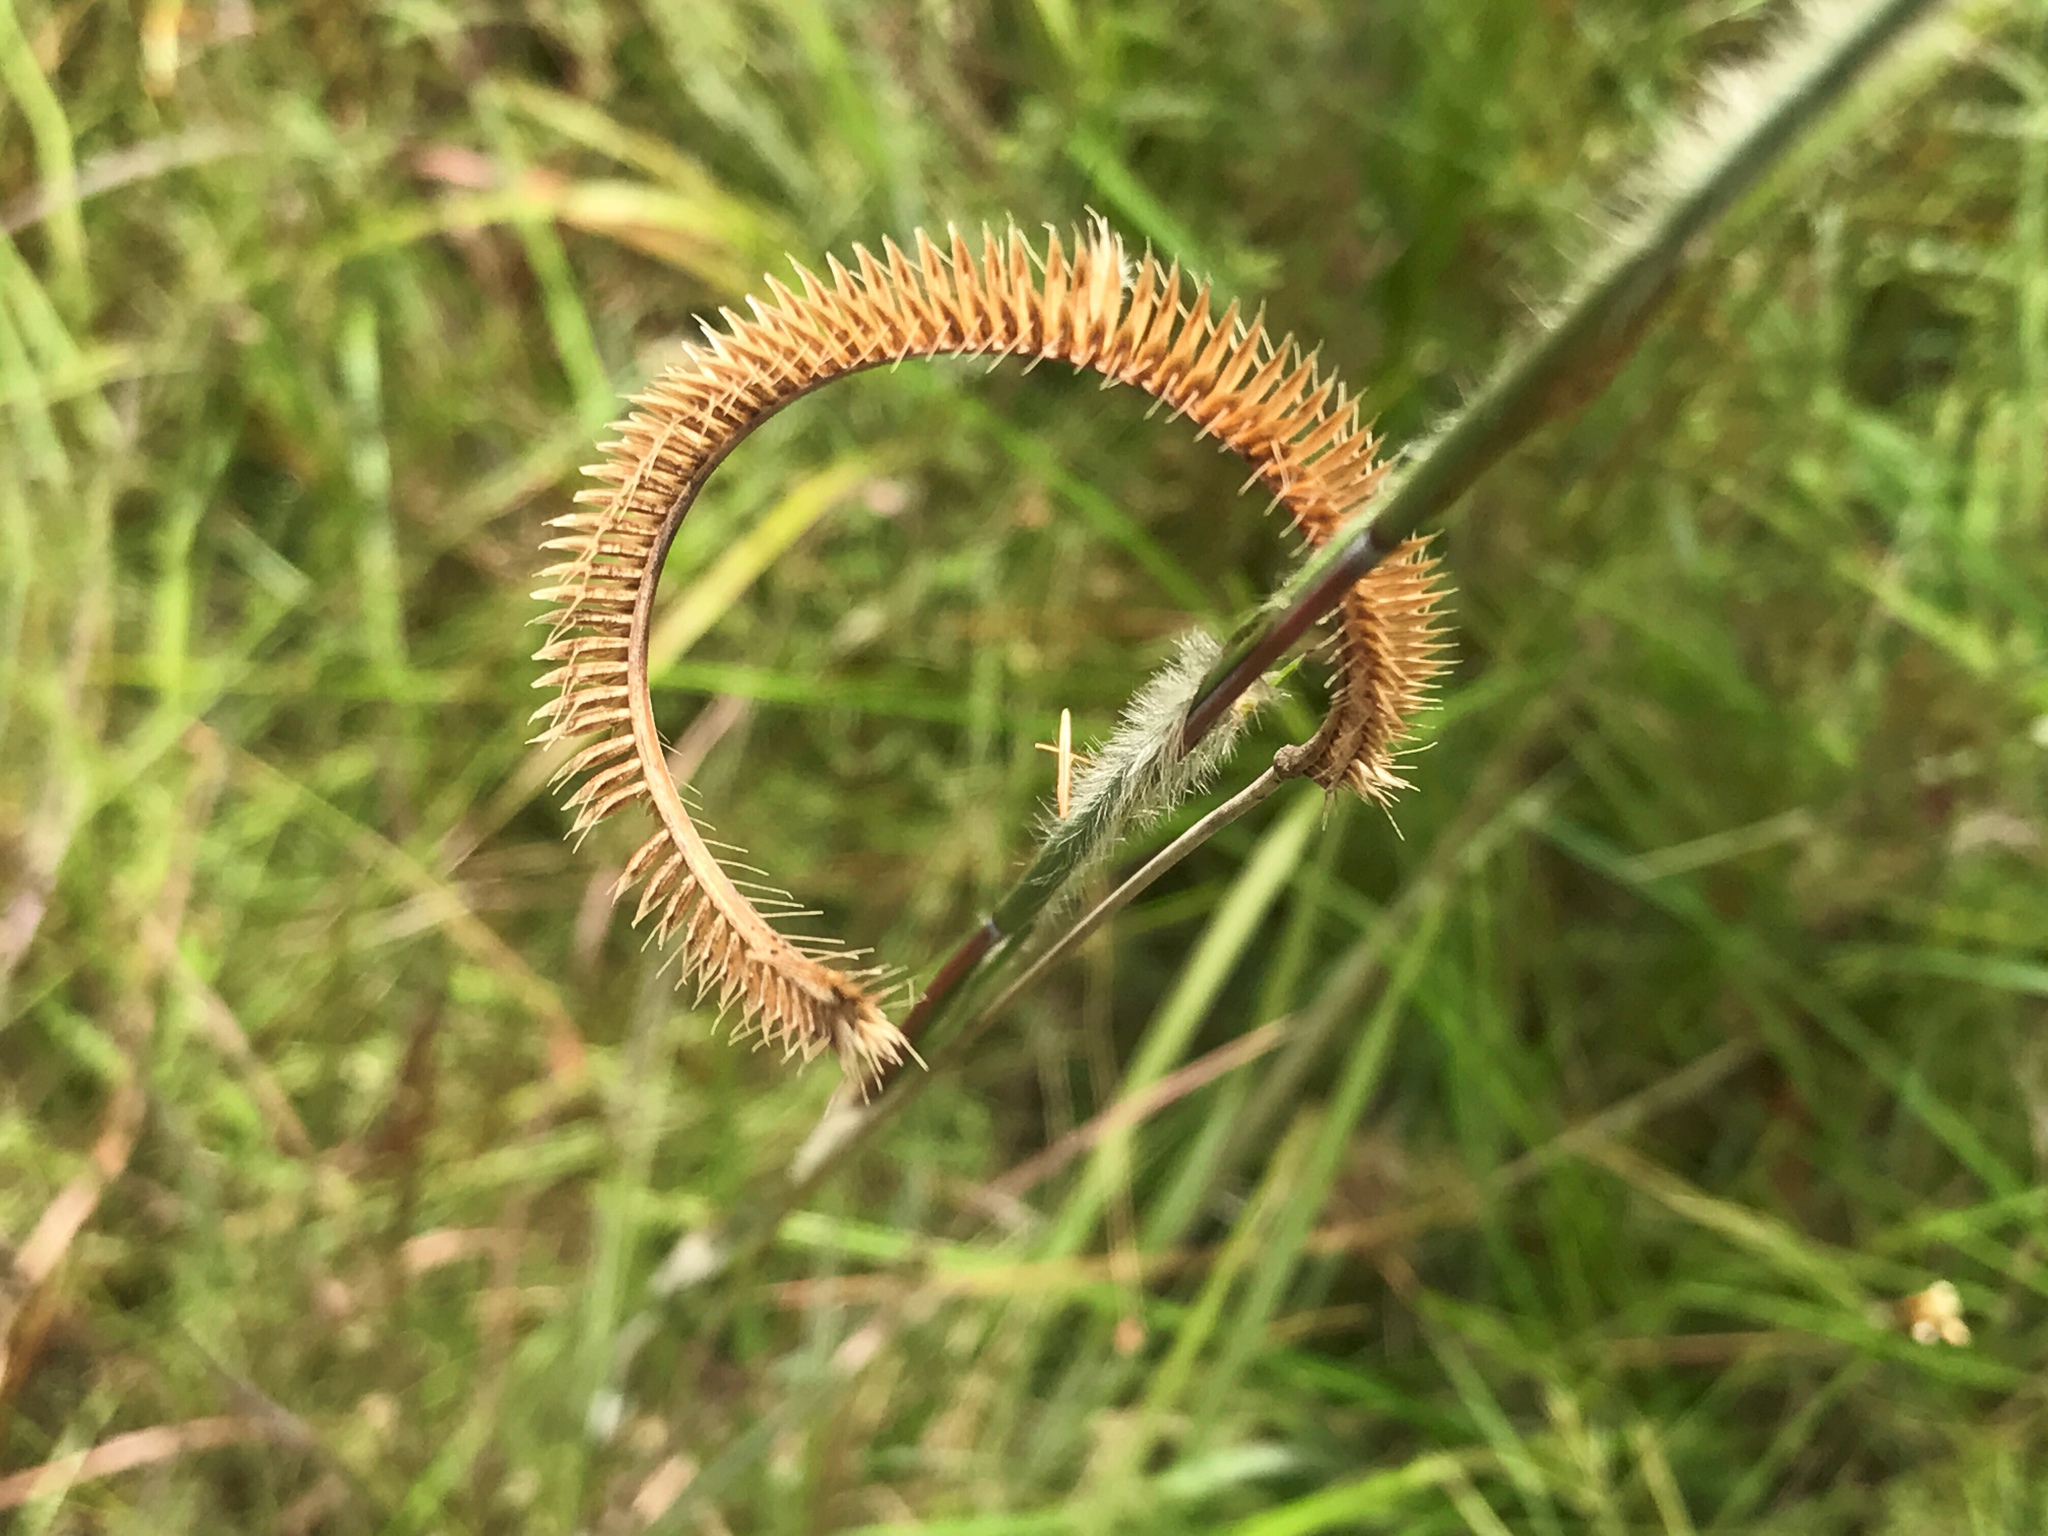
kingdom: Plantae
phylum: Tracheophyta
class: Liliopsida
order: Poales
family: Poaceae
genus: Ctenium
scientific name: Ctenium aromaticum
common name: Toothache grass
